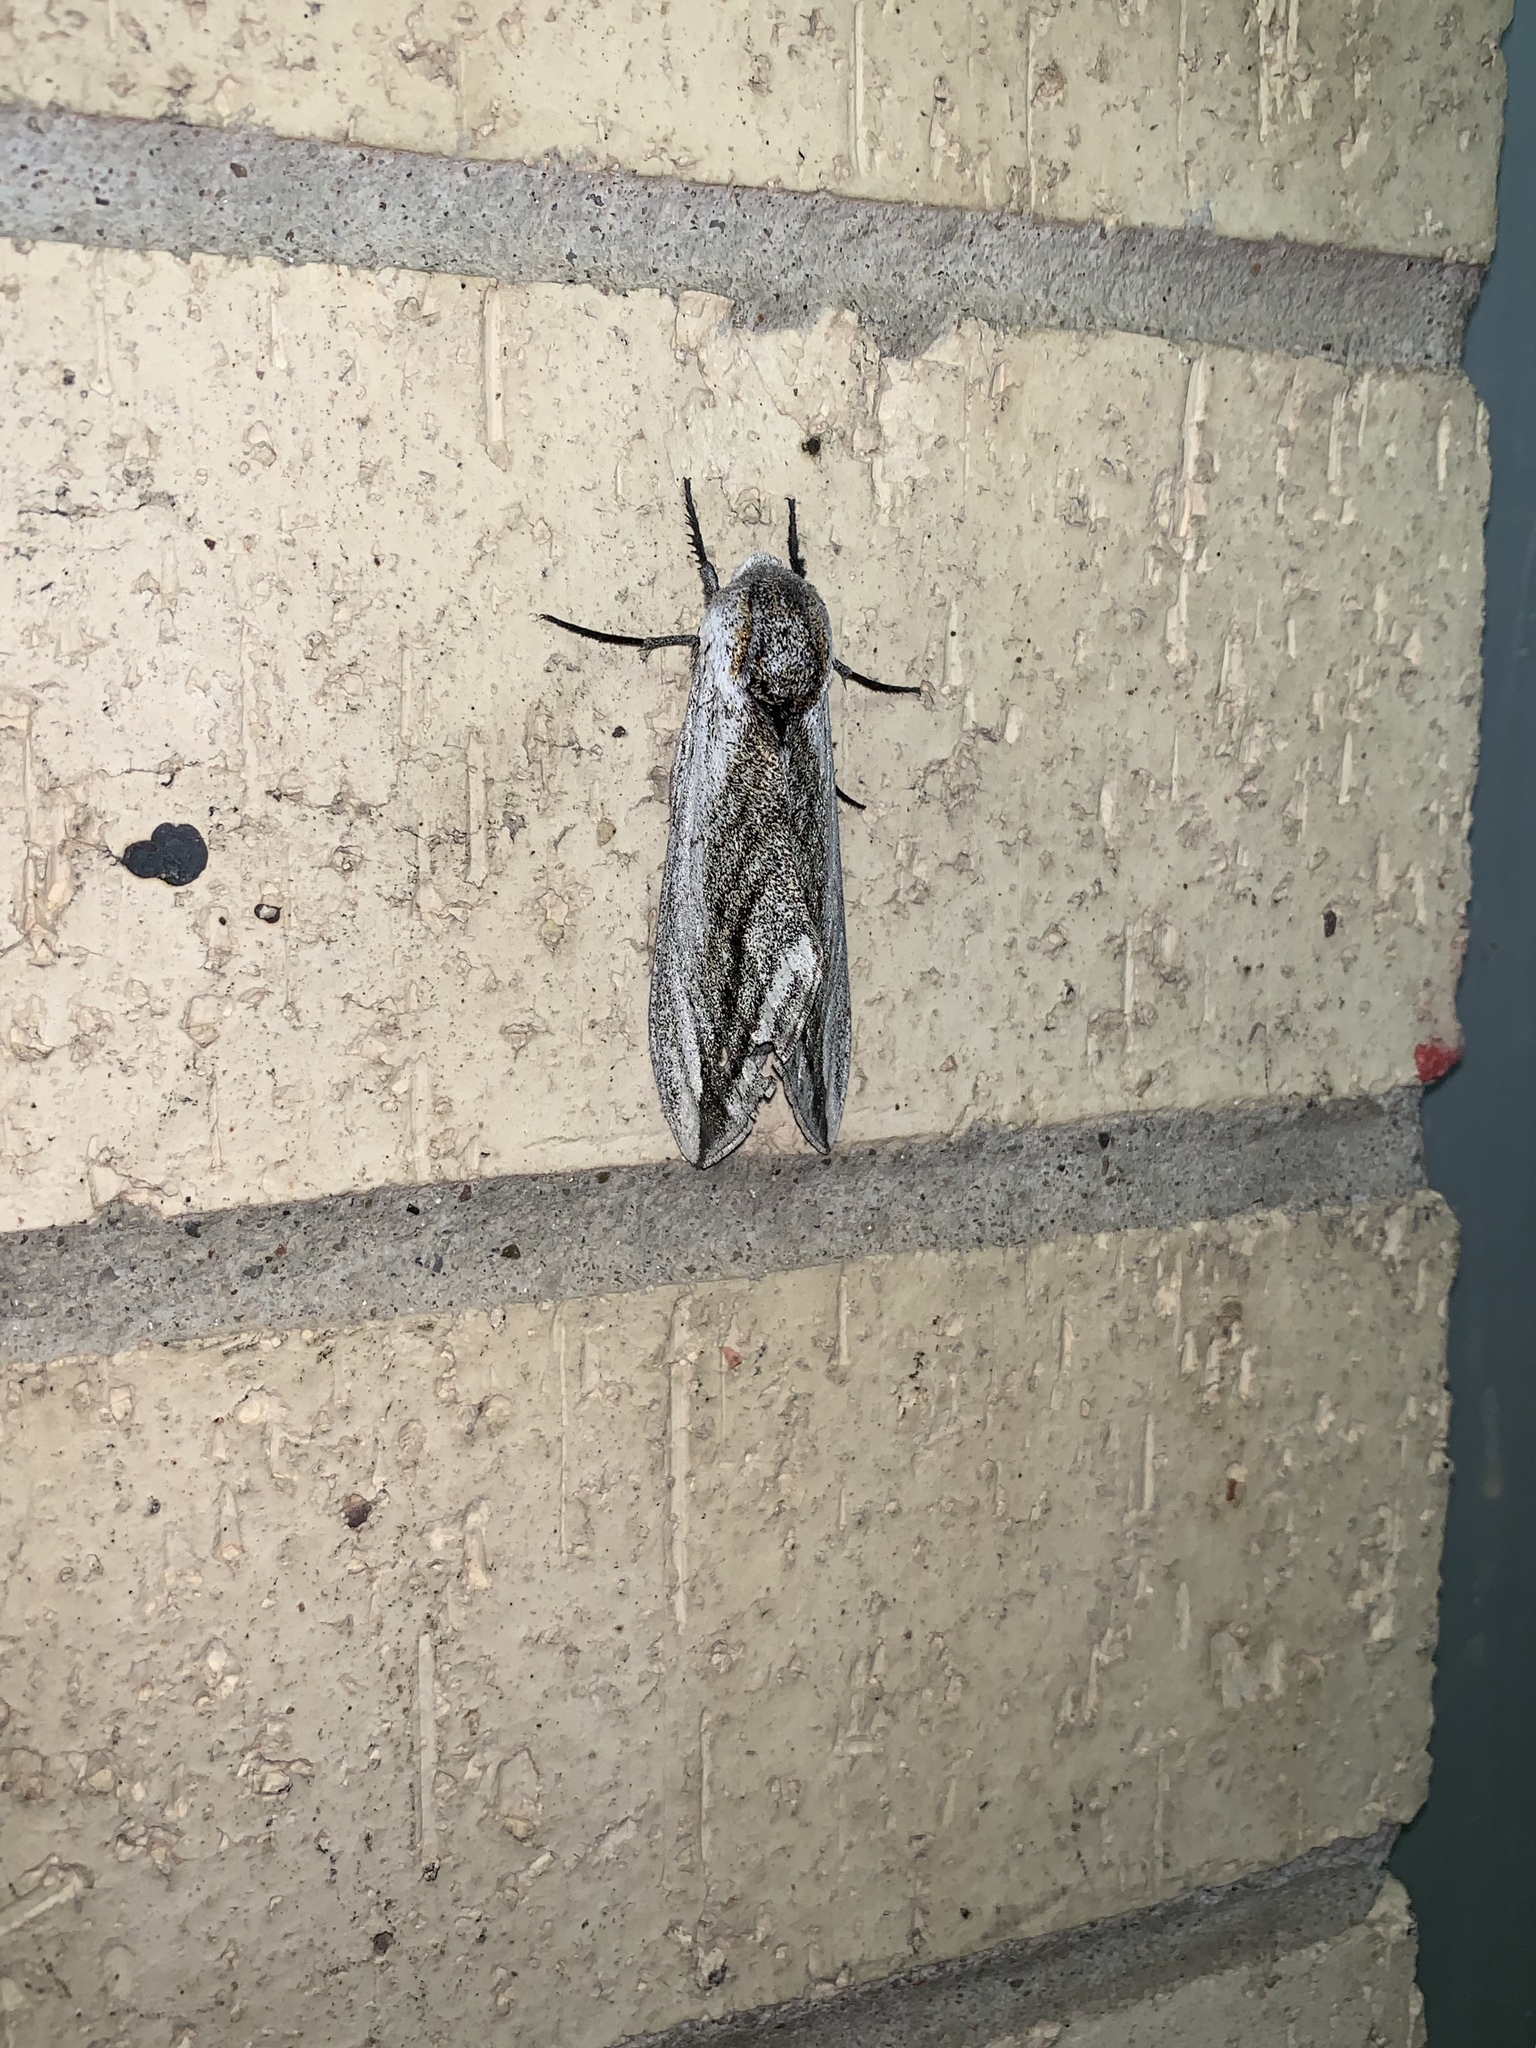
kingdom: Animalia
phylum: Arthropoda
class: Insecta
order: Lepidoptera
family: Sphingidae
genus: Sagenosoma
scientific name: Sagenosoma elsa
